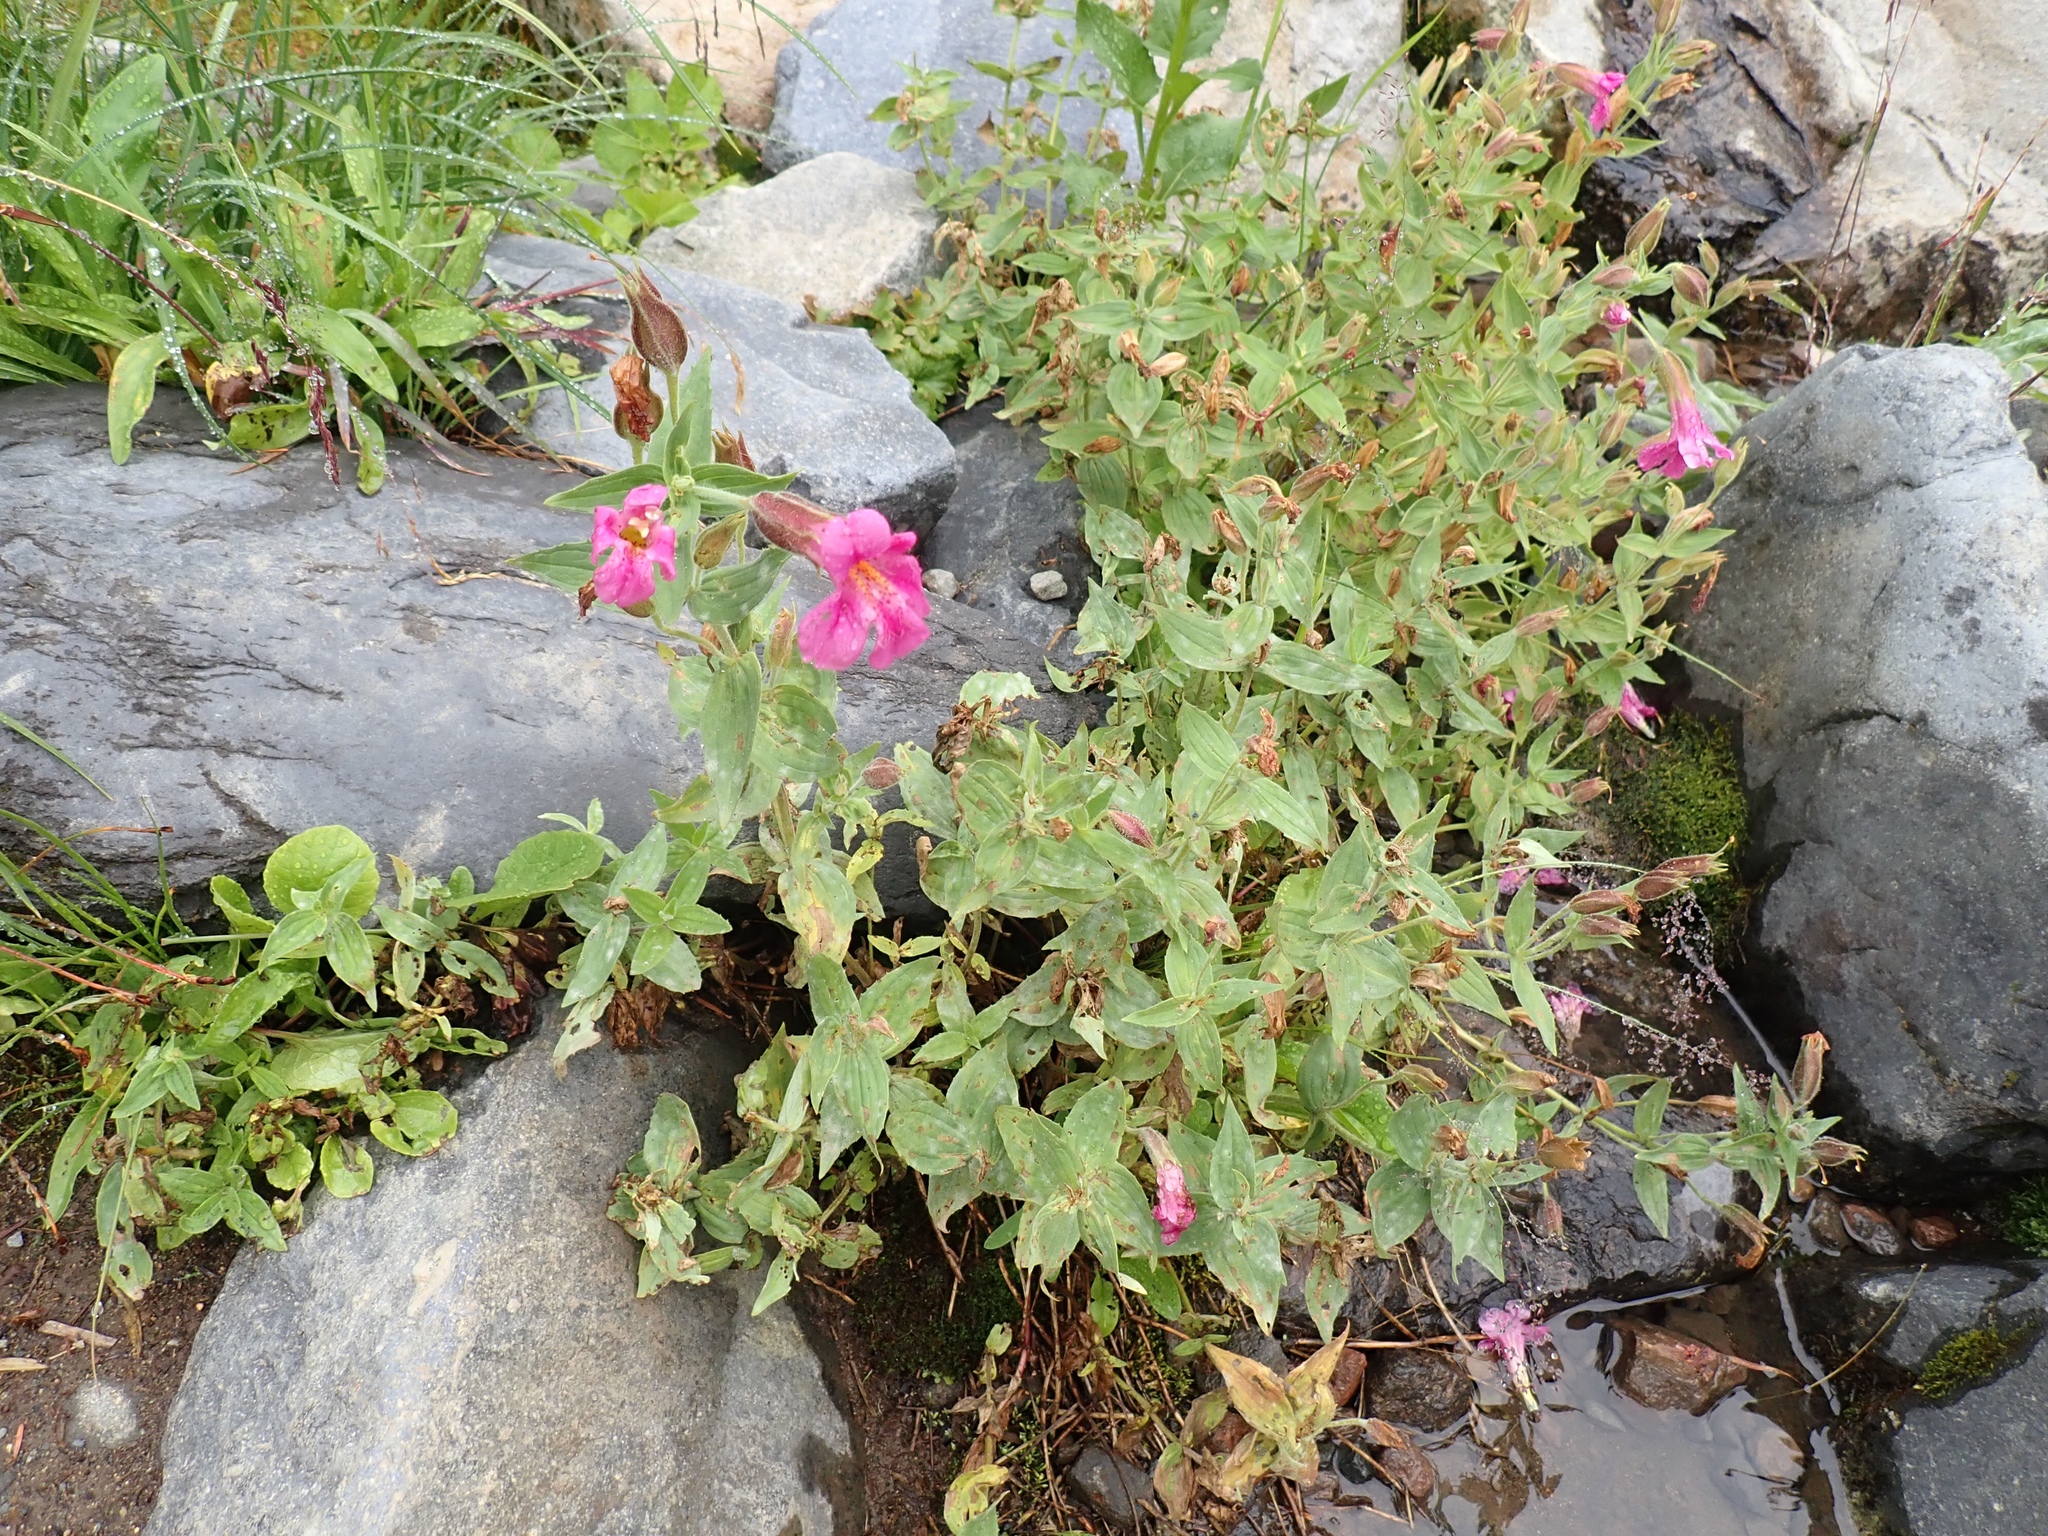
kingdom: Plantae
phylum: Tracheophyta
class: Magnoliopsida
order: Lamiales
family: Phrymaceae
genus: Erythranthe
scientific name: Erythranthe lewisii
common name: Lewis's monkey-flower
